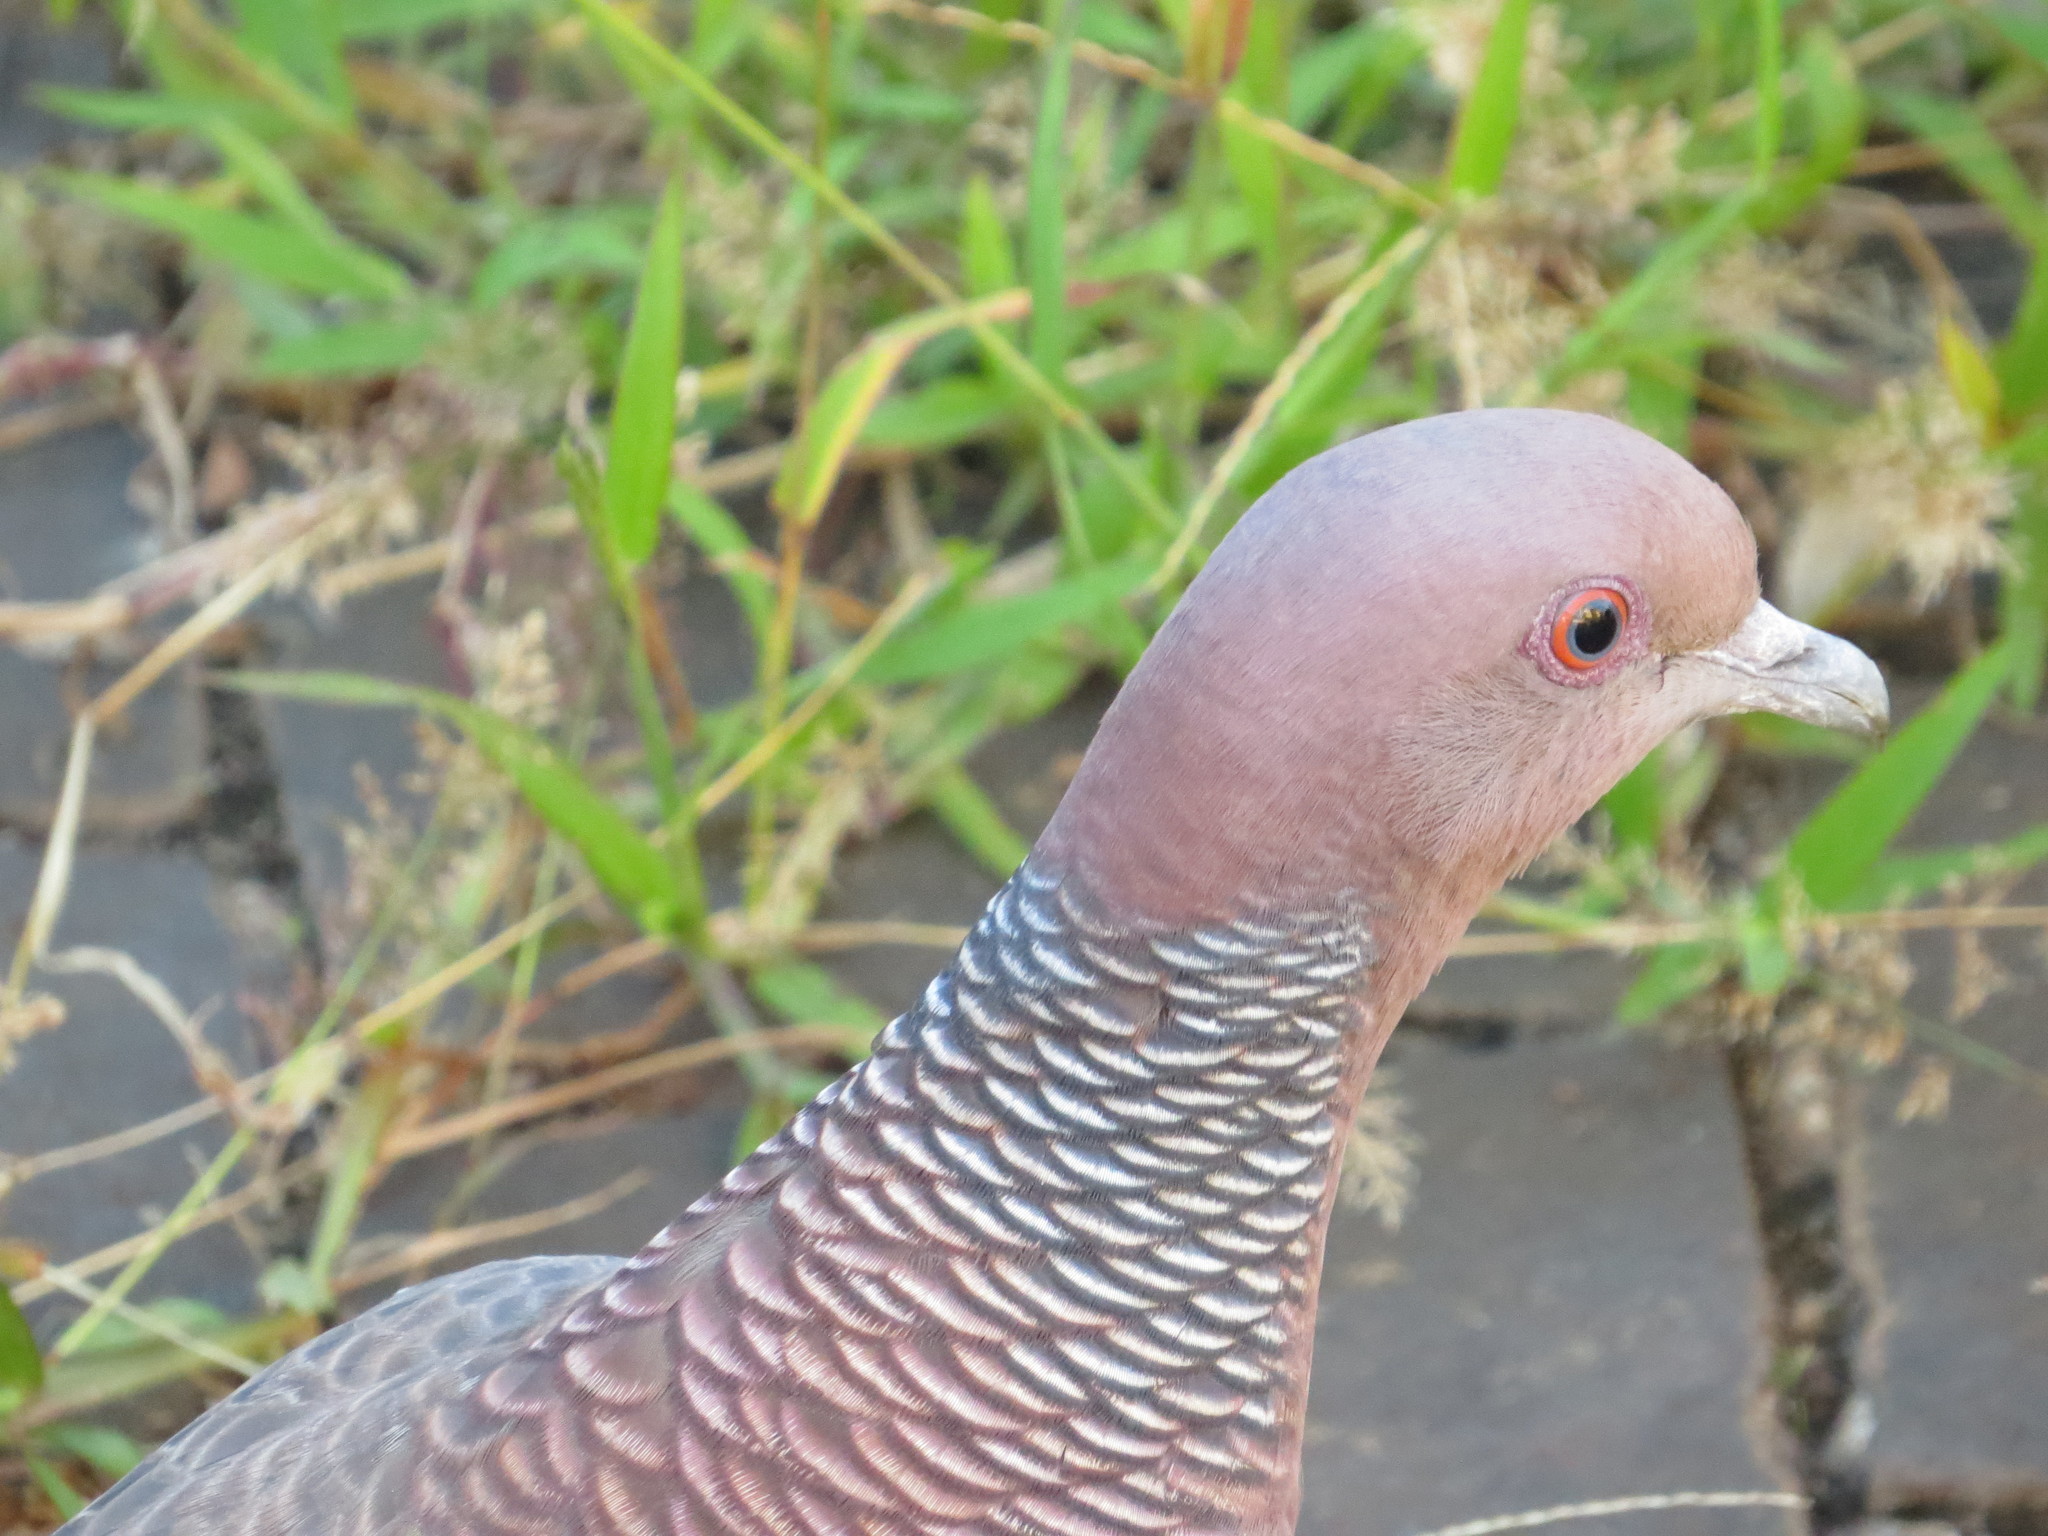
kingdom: Animalia
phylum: Chordata
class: Aves
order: Columbiformes
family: Columbidae
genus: Patagioenas
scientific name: Patagioenas picazuro
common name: Picazuro pigeon
